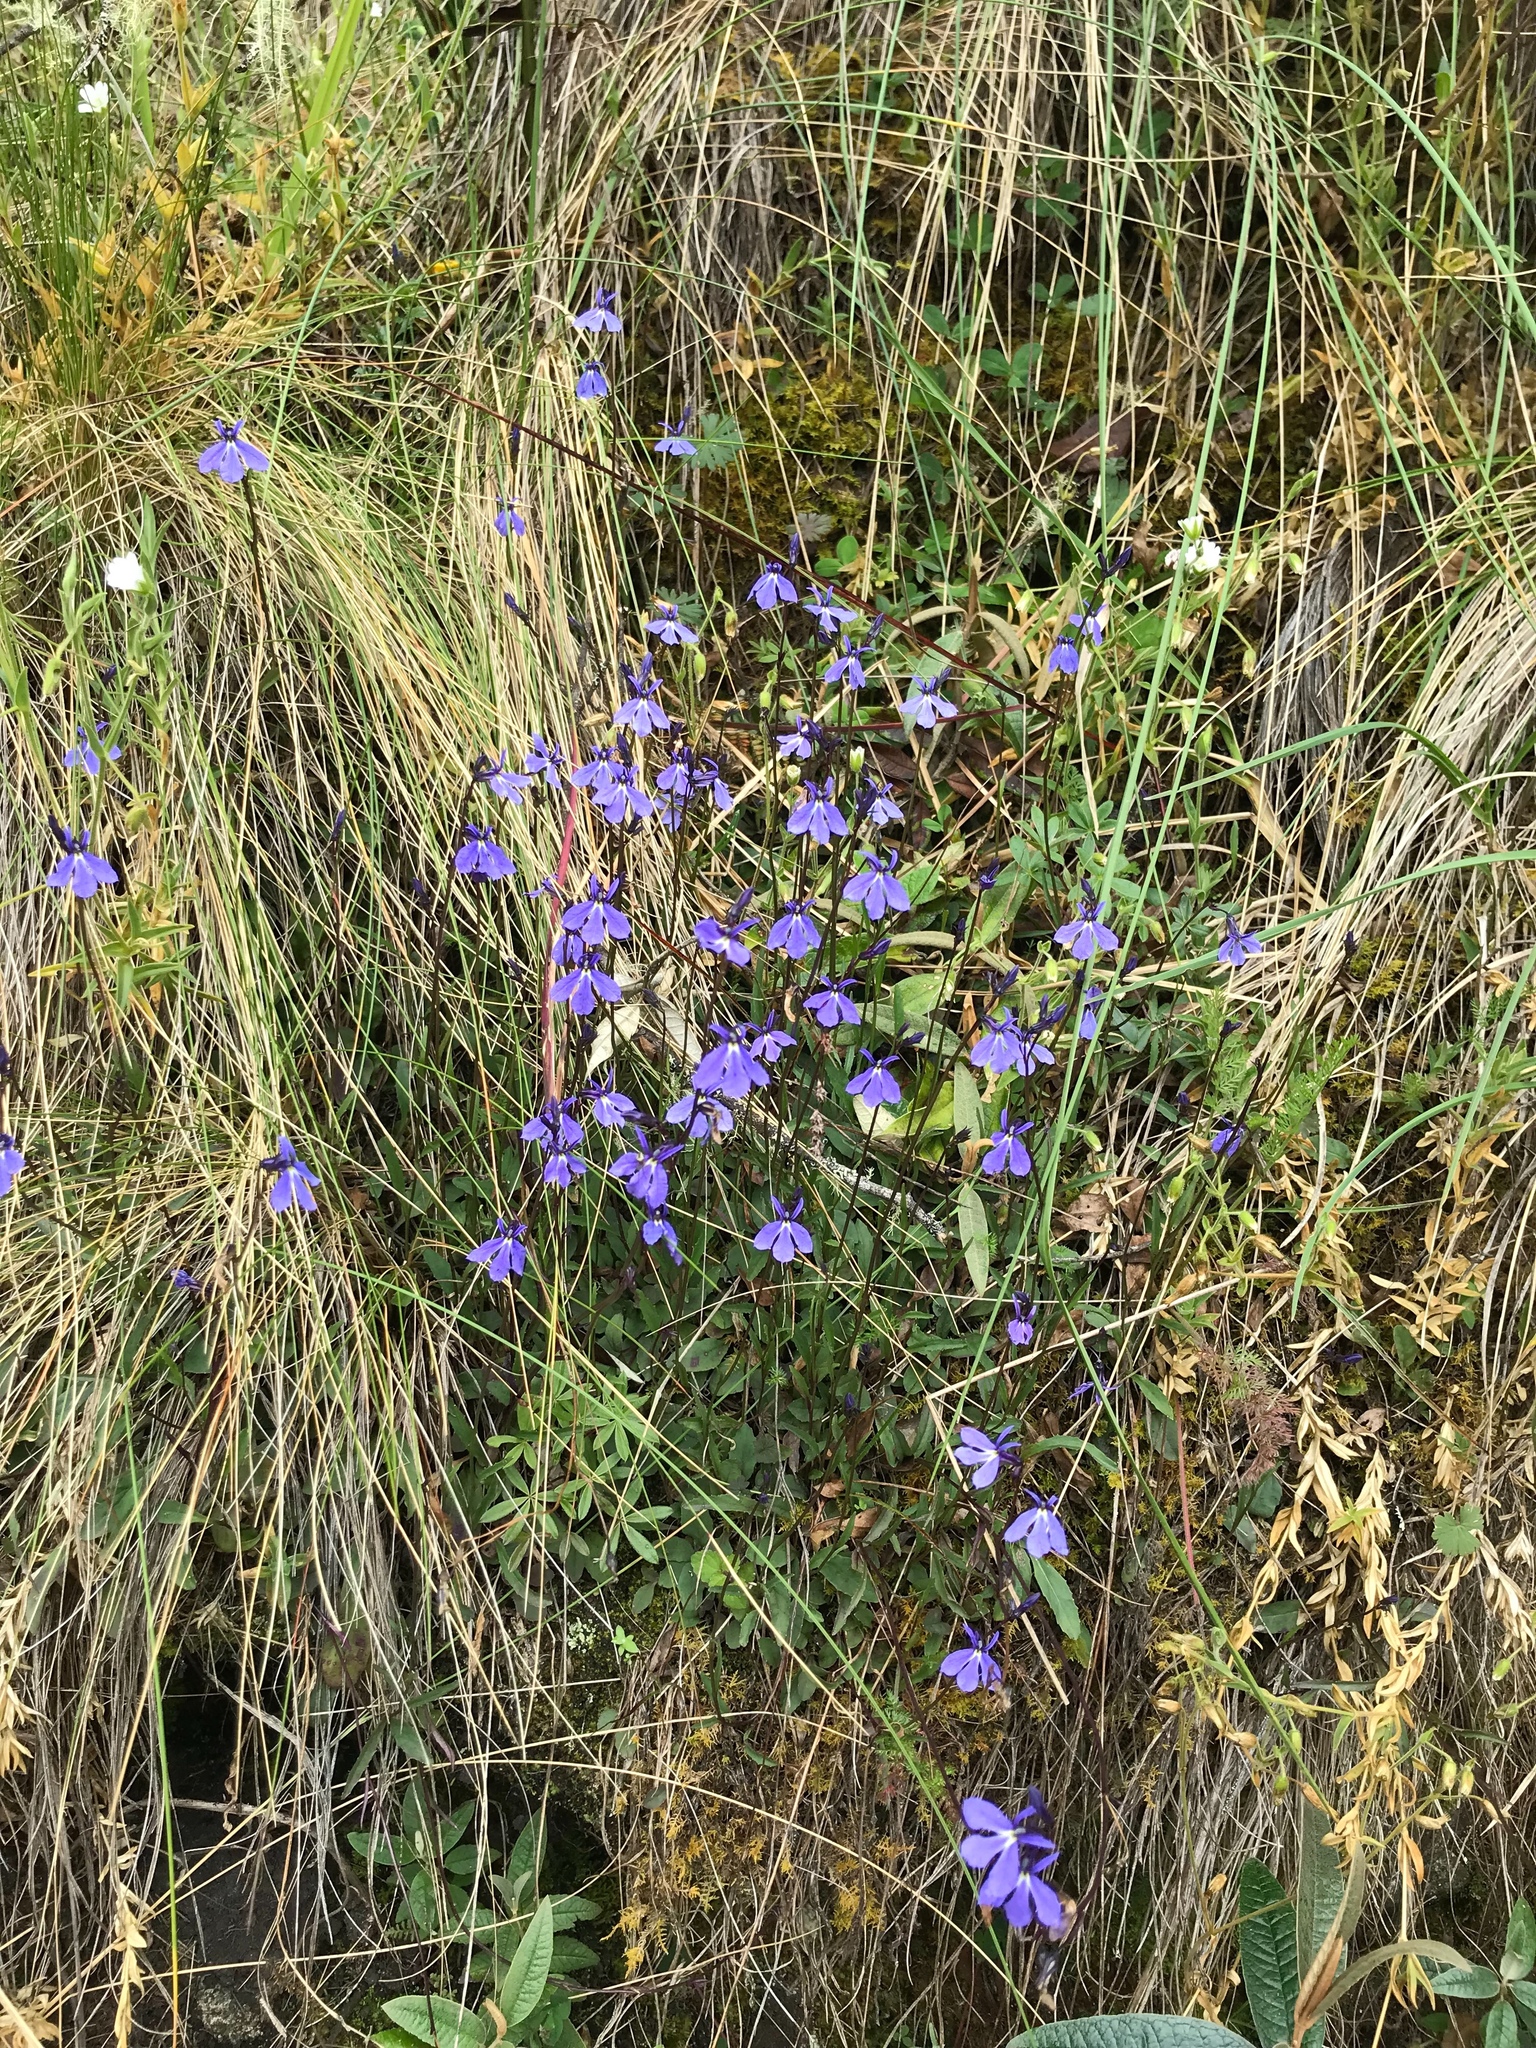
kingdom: Plantae
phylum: Tracheophyta
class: Magnoliopsida
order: Asterales
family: Campanulaceae
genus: Lobelia
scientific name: Lobelia tenera
